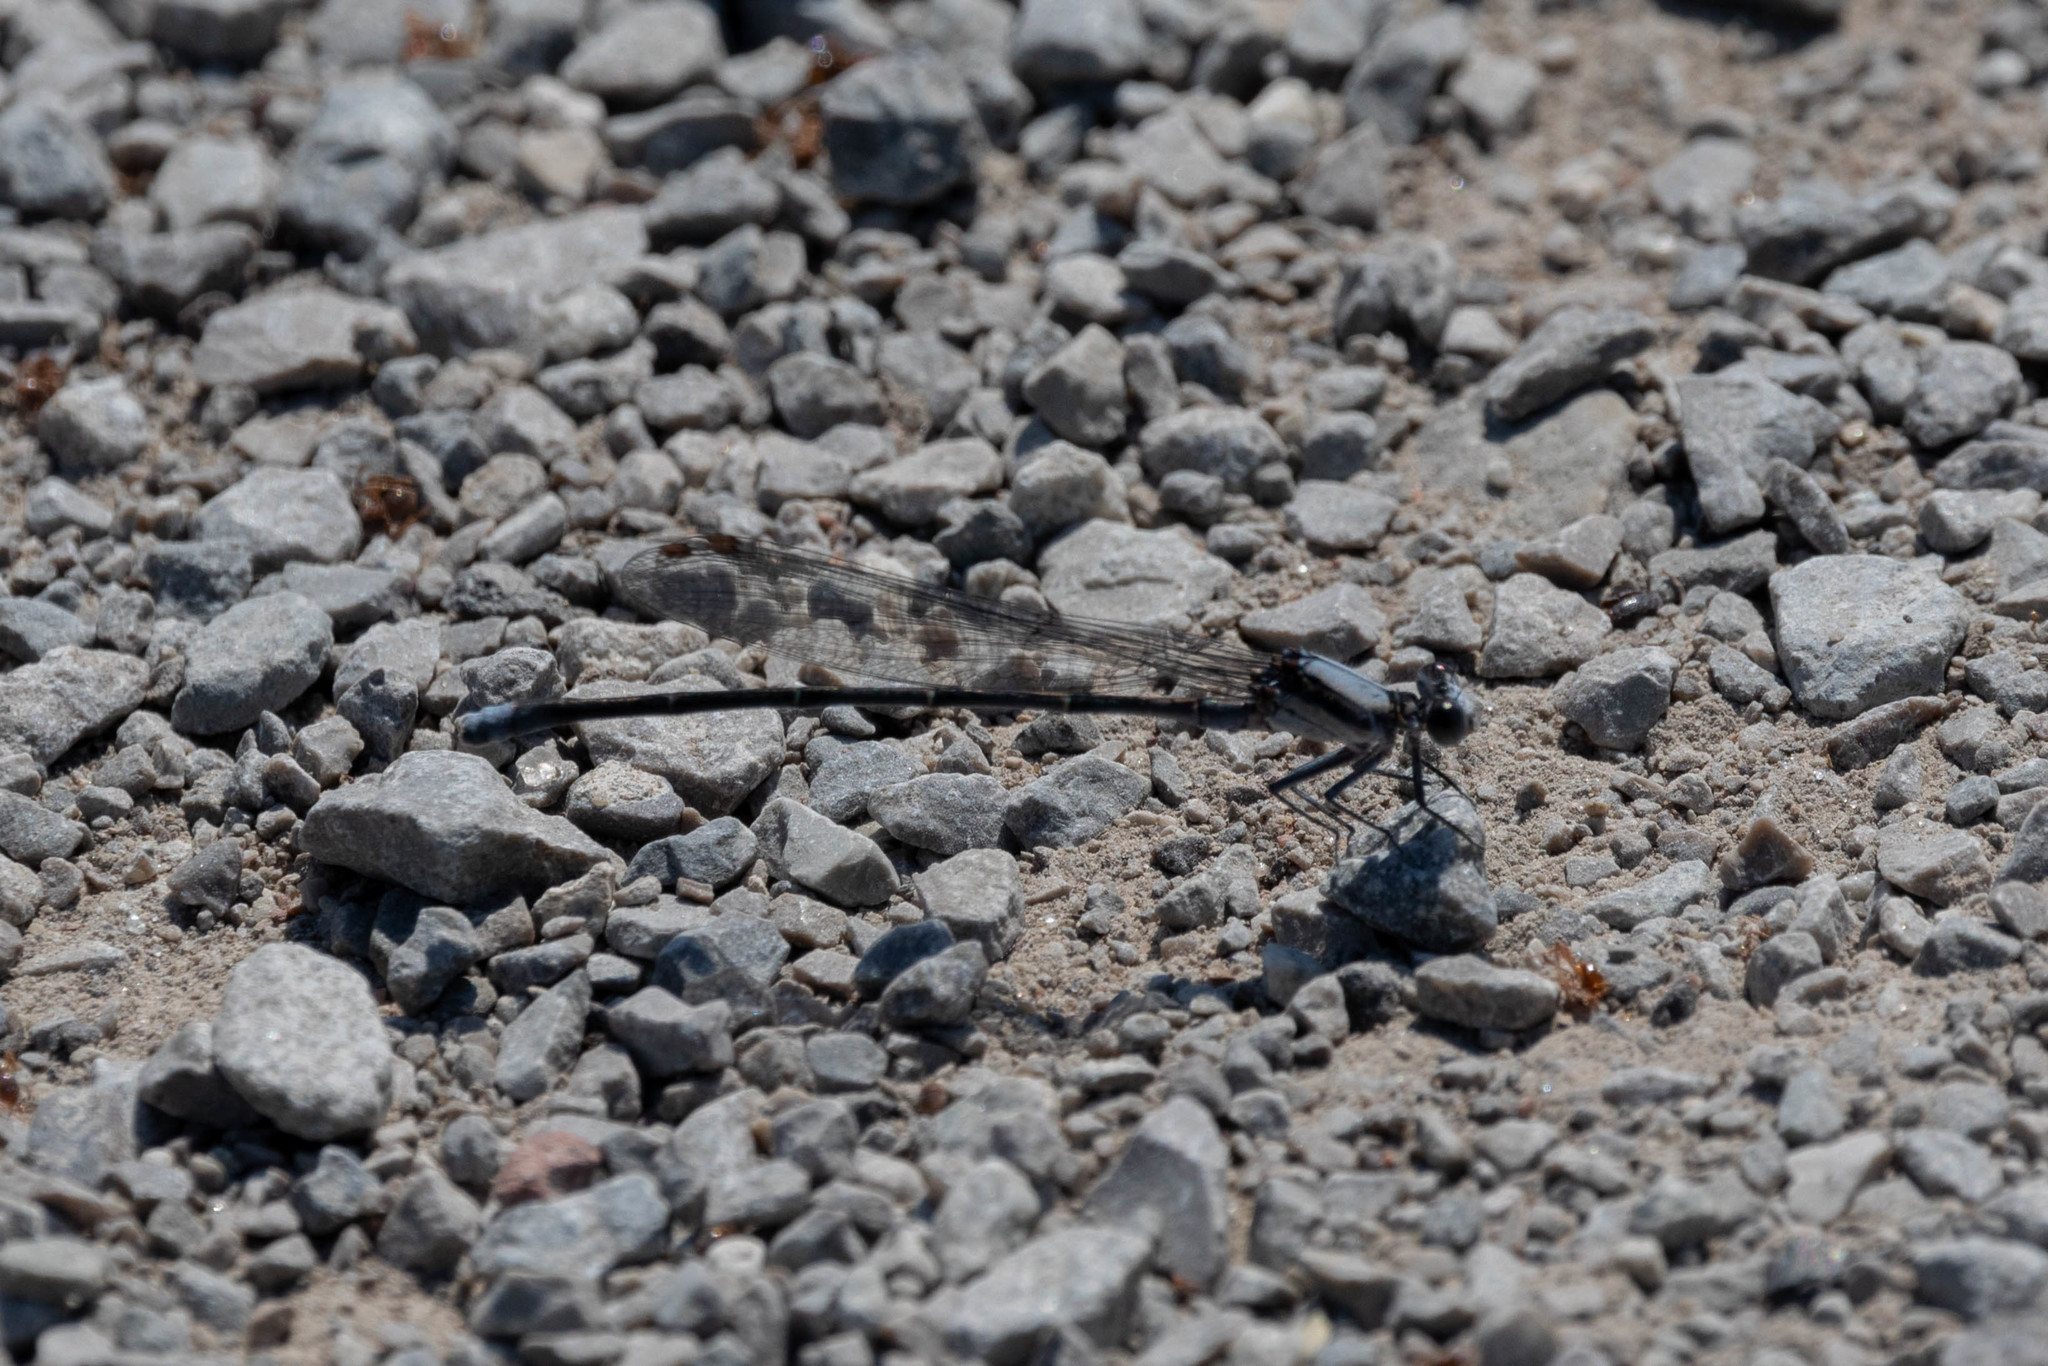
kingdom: Animalia
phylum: Arthropoda
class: Insecta
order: Odonata
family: Coenagrionidae
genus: Argia
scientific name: Argia moesta
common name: Powdered dancer
